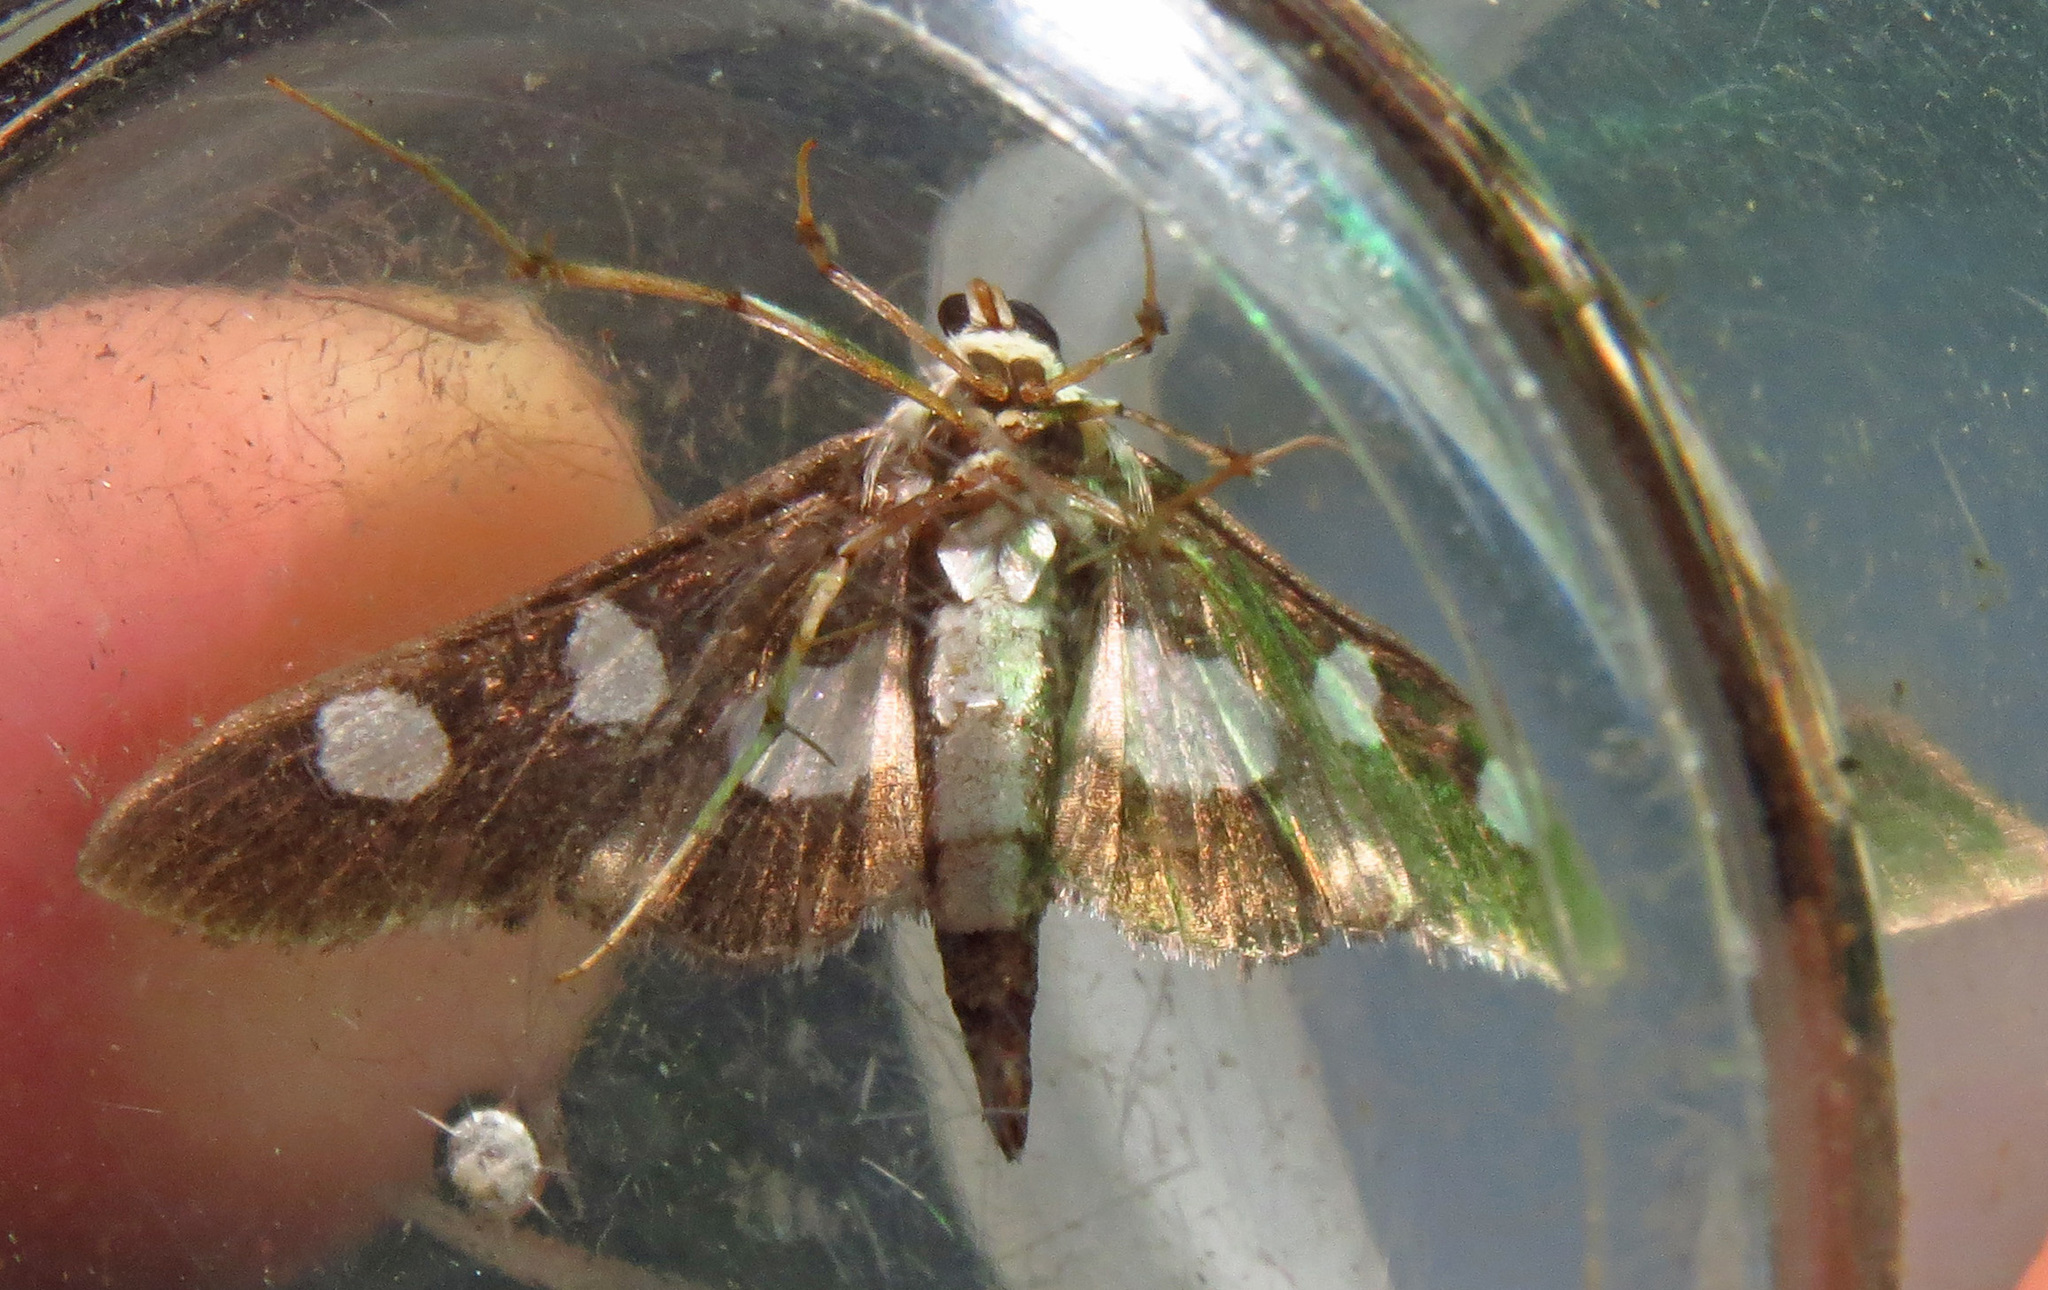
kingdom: Animalia
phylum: Arthropoda
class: Insecta
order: Lepidoptera
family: Crambidae
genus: Desmia
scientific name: Desmia funeralis
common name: Grape leaf folder moth
